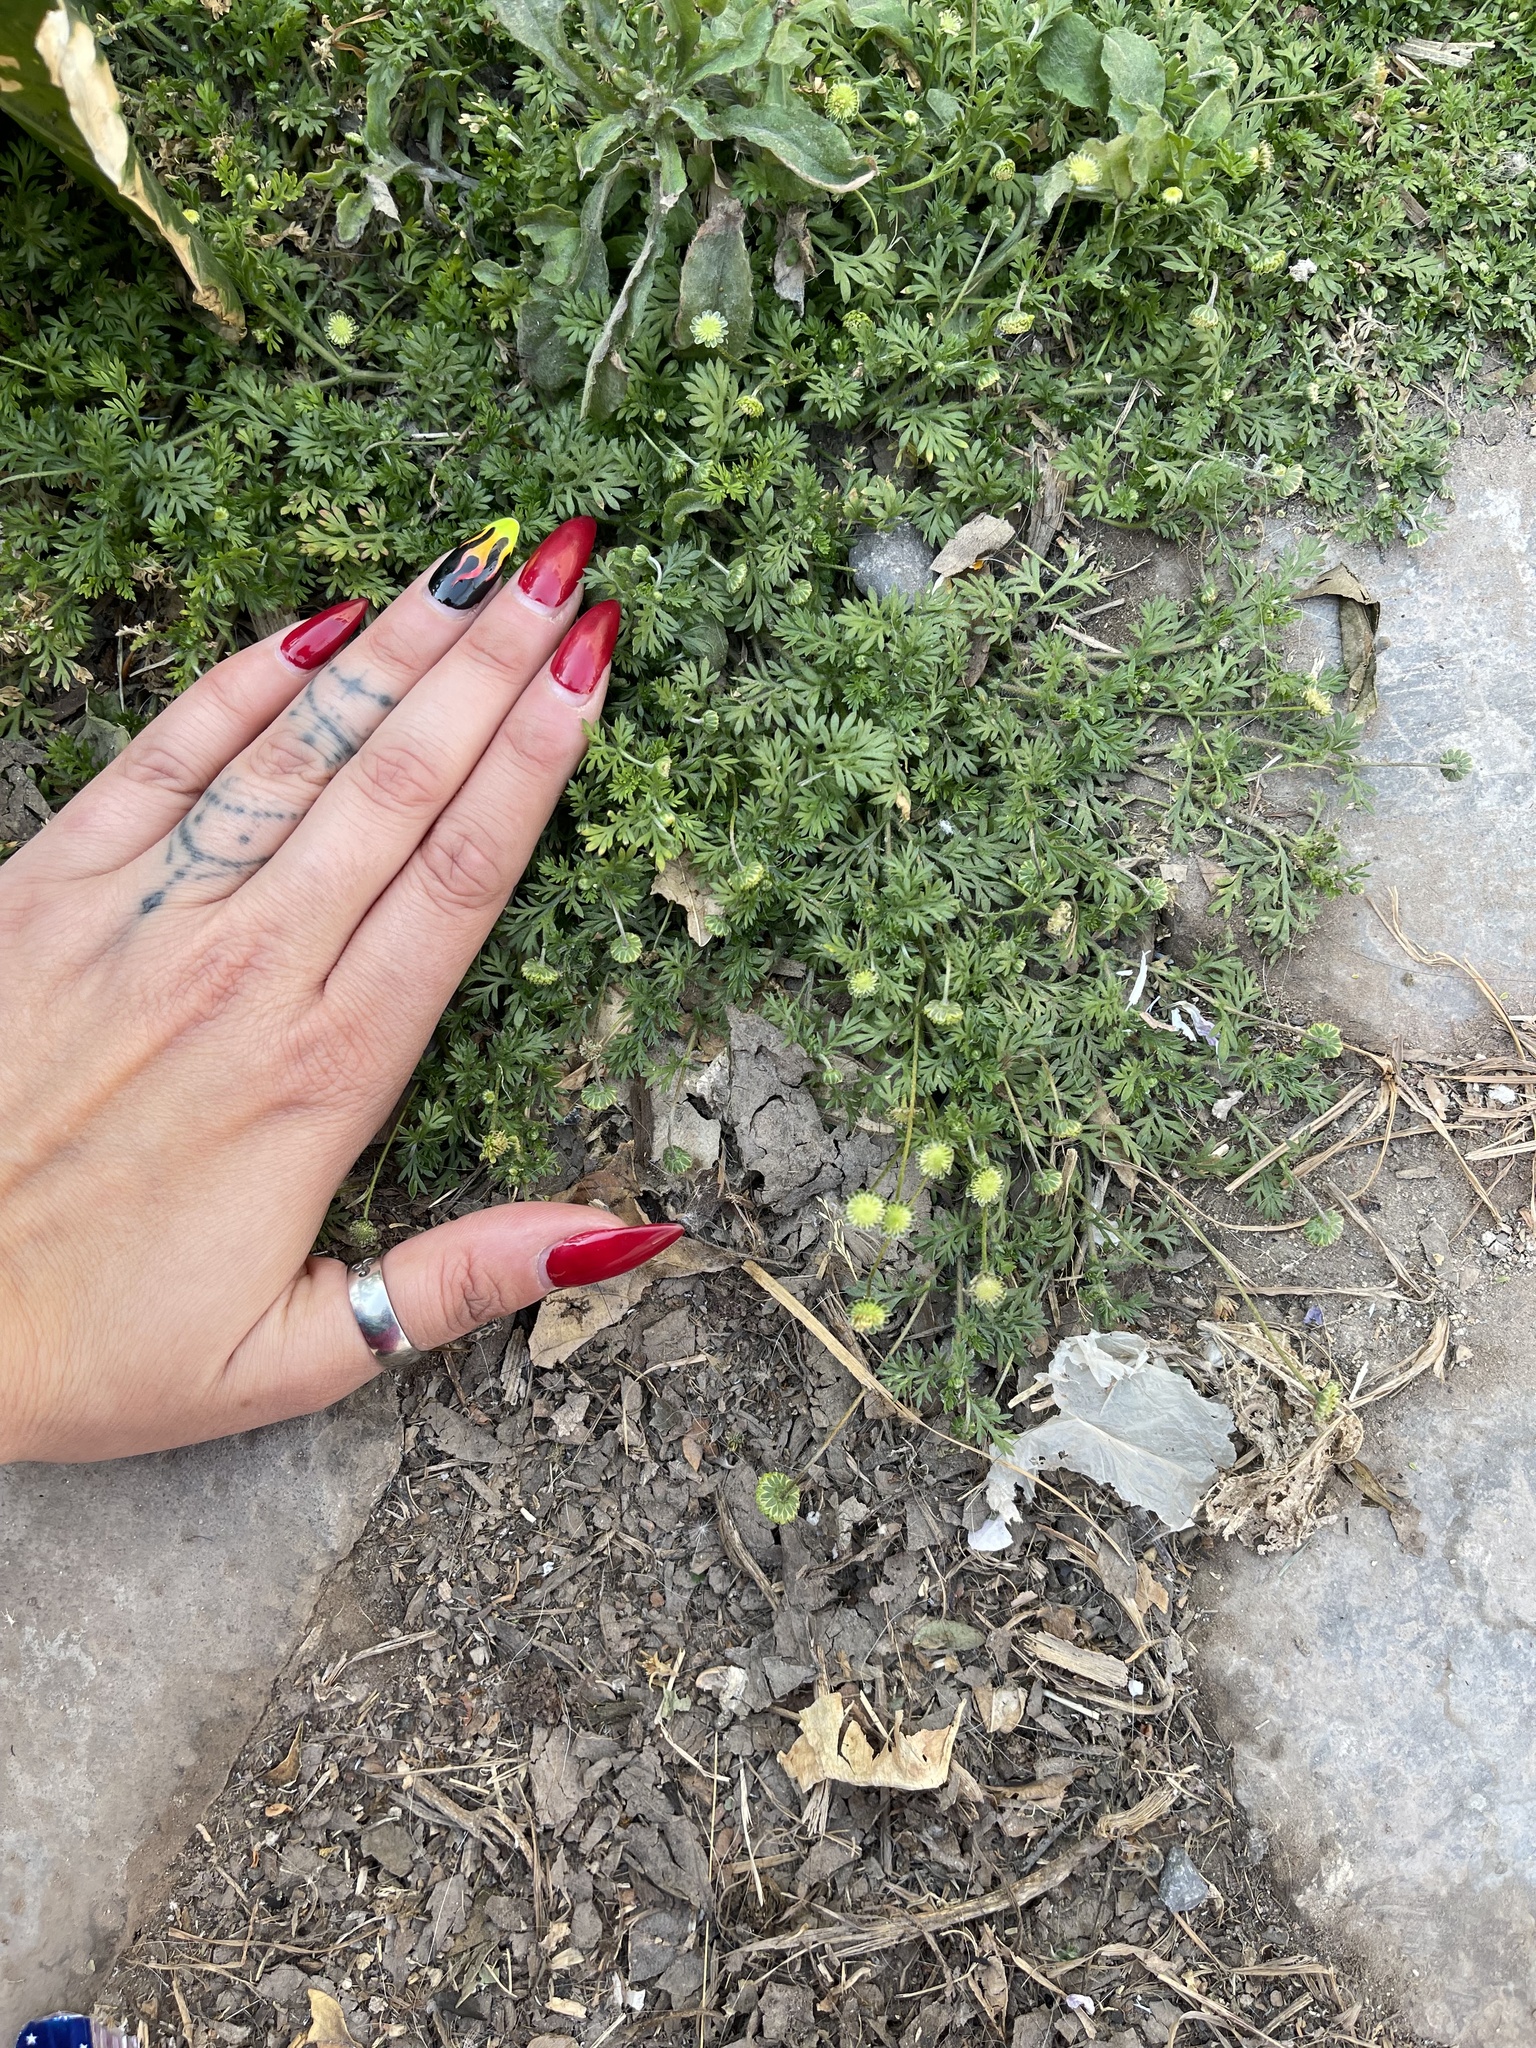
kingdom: Plantae
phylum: Tracheophyta
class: Magnoliopsida
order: Asterales
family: Asteraceae
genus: Cotula
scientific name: Cotula australis
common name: Australian waterbuttons
